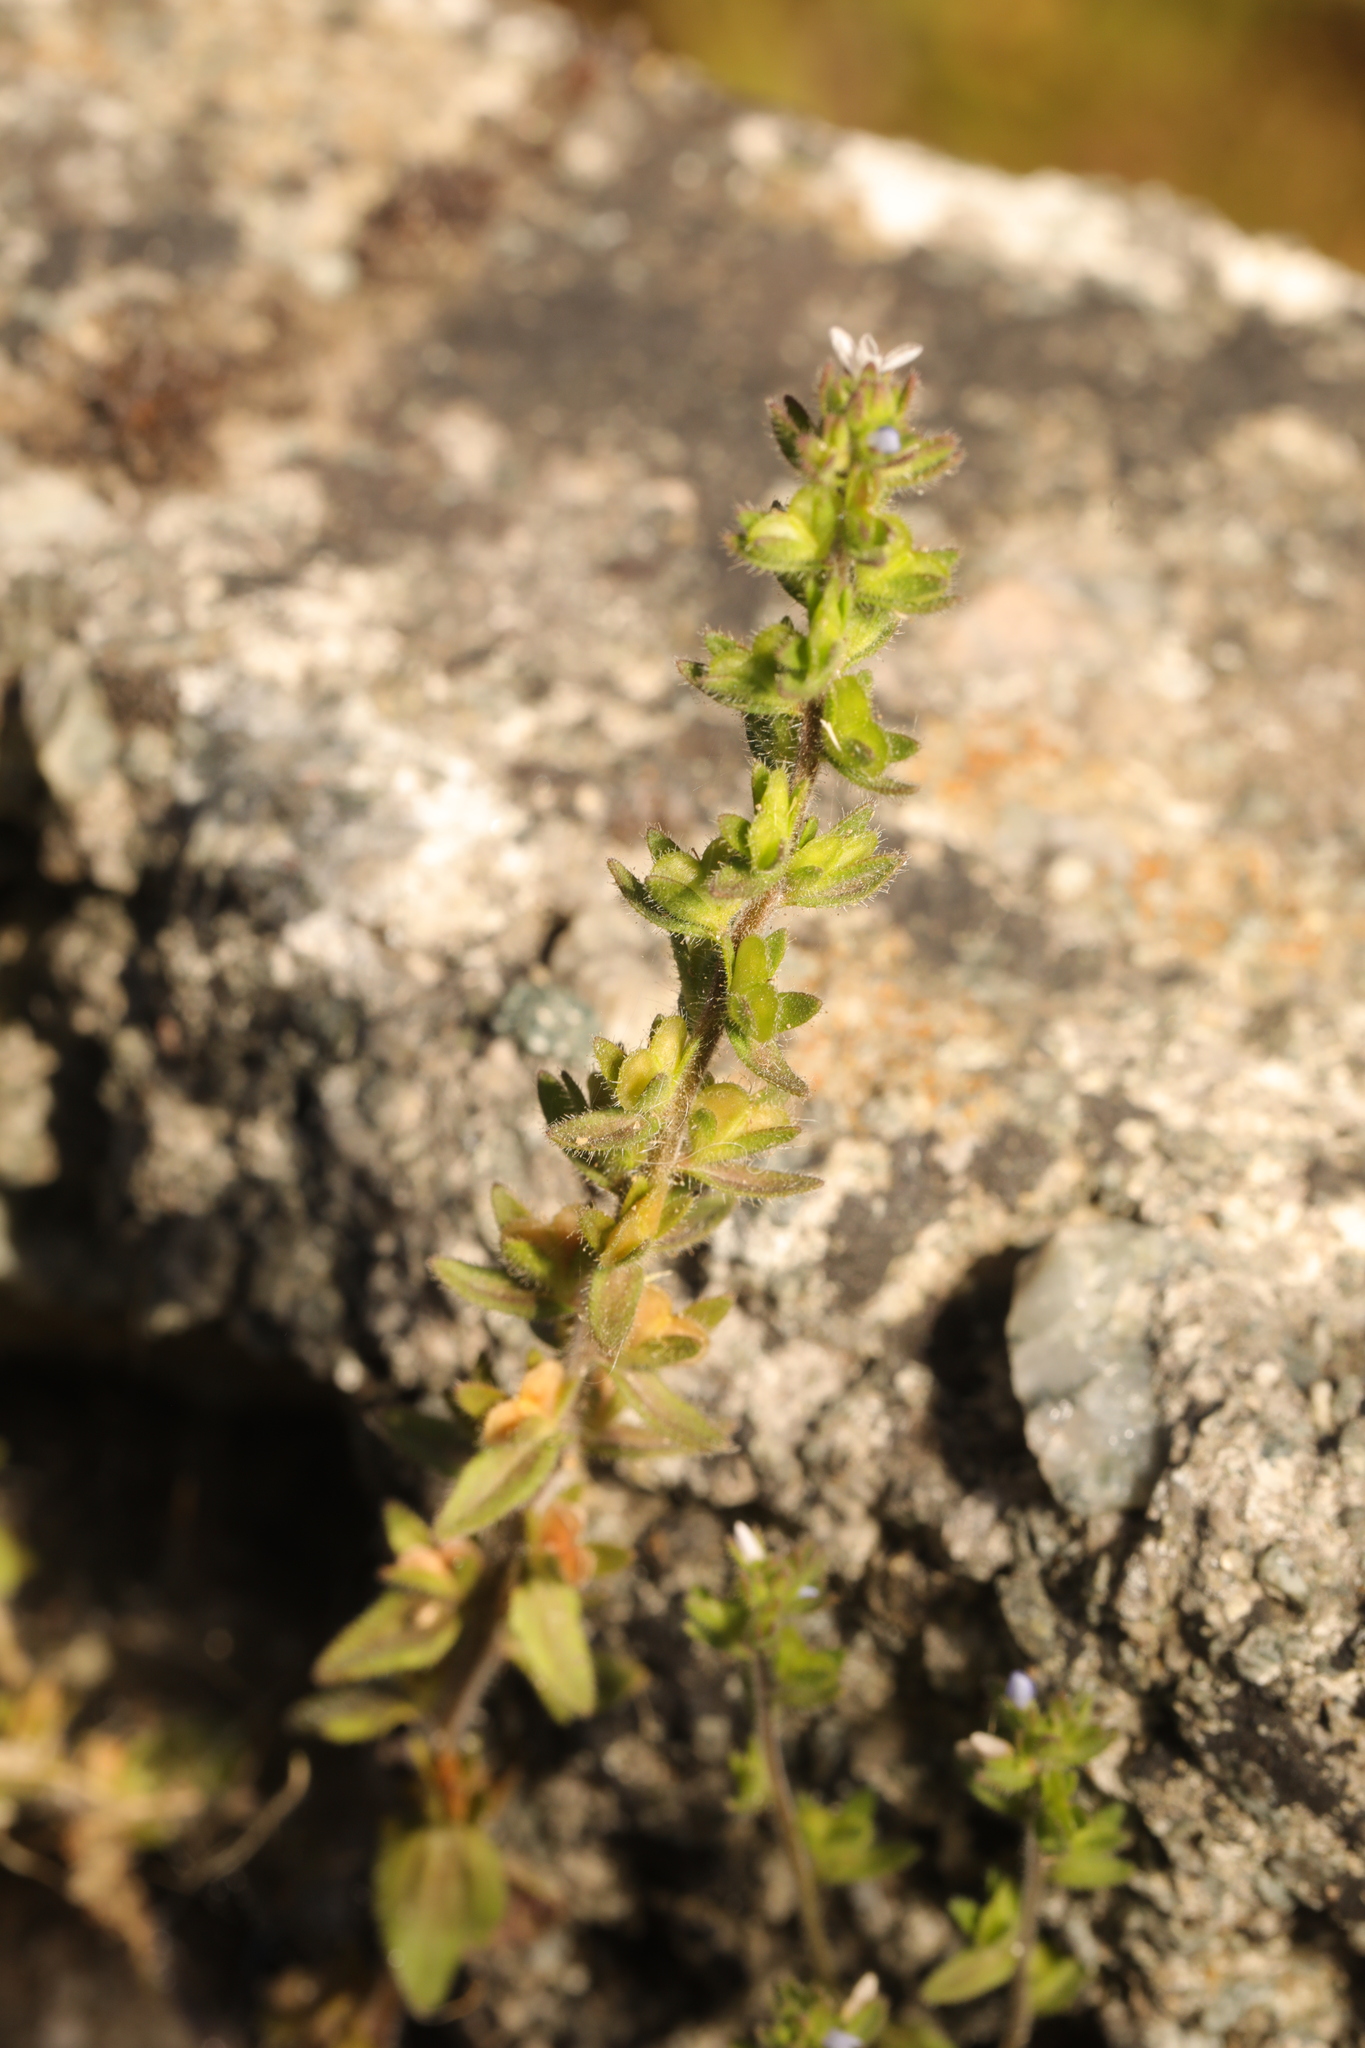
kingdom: Plantae
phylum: Tracheophyta
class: Magnoliopsida
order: Lamiales
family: Plantaginaceae
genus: Veronica
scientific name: Veronica arvensis
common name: Corn speedwell
